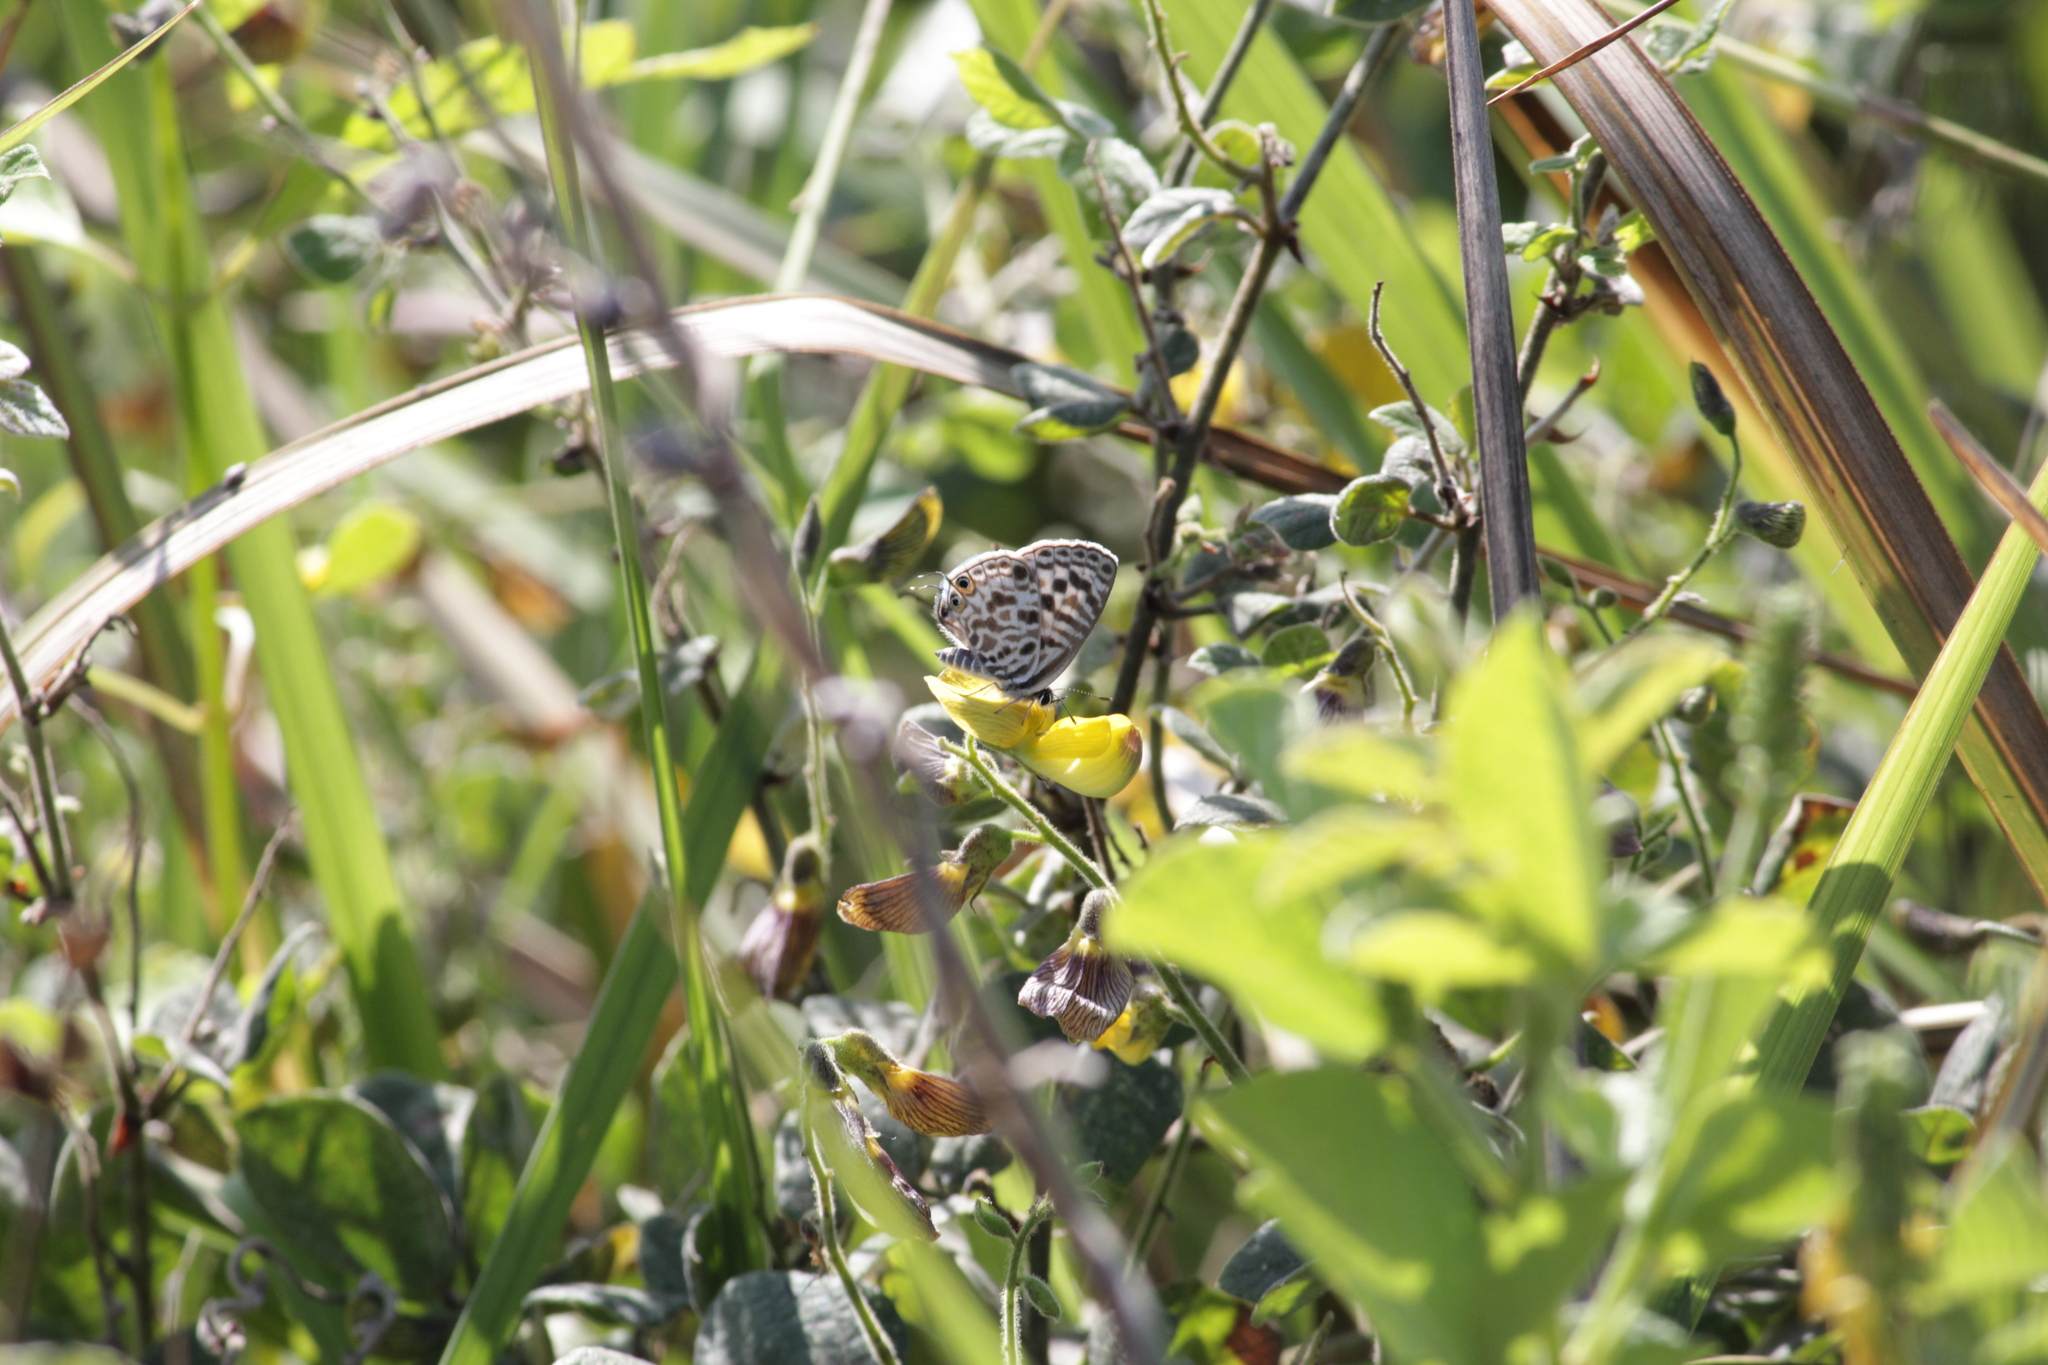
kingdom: Animalia
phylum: Arthropoda
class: Insecta
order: Lepidoptera
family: Lycaenidae
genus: Leptotes
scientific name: Leptotes
